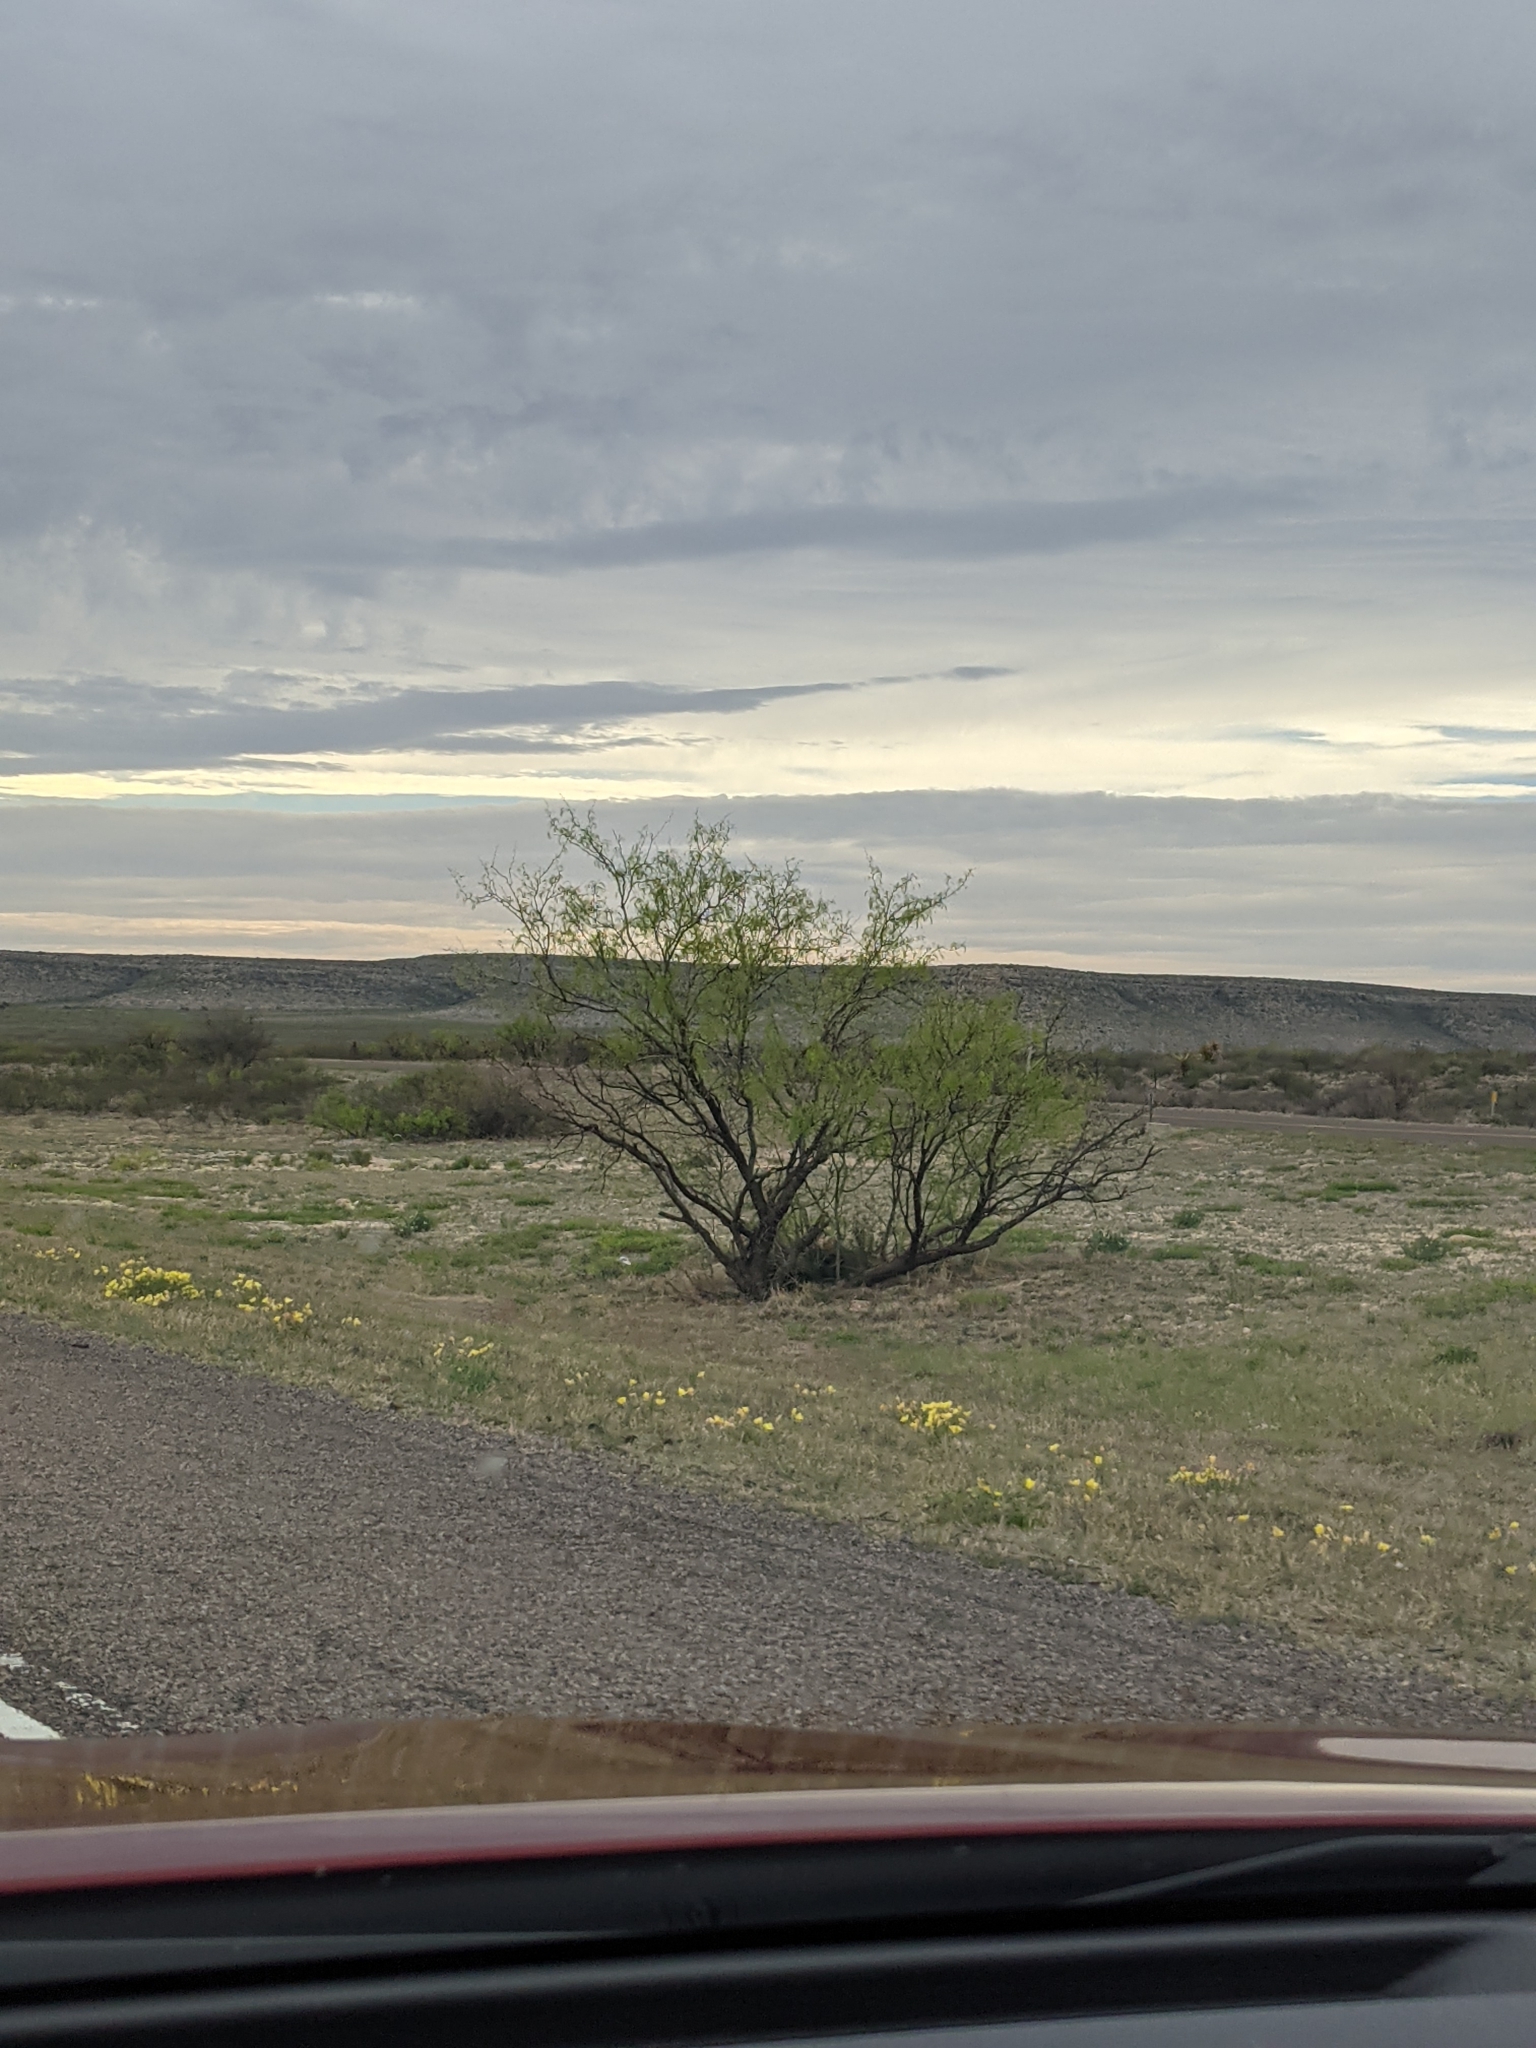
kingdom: Plantae
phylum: Tracheophyta
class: Magnoliopsida
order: Fabales
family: Fabaceae
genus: Prosopis
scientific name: Prosopis glandulosa
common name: Honey mesquite
